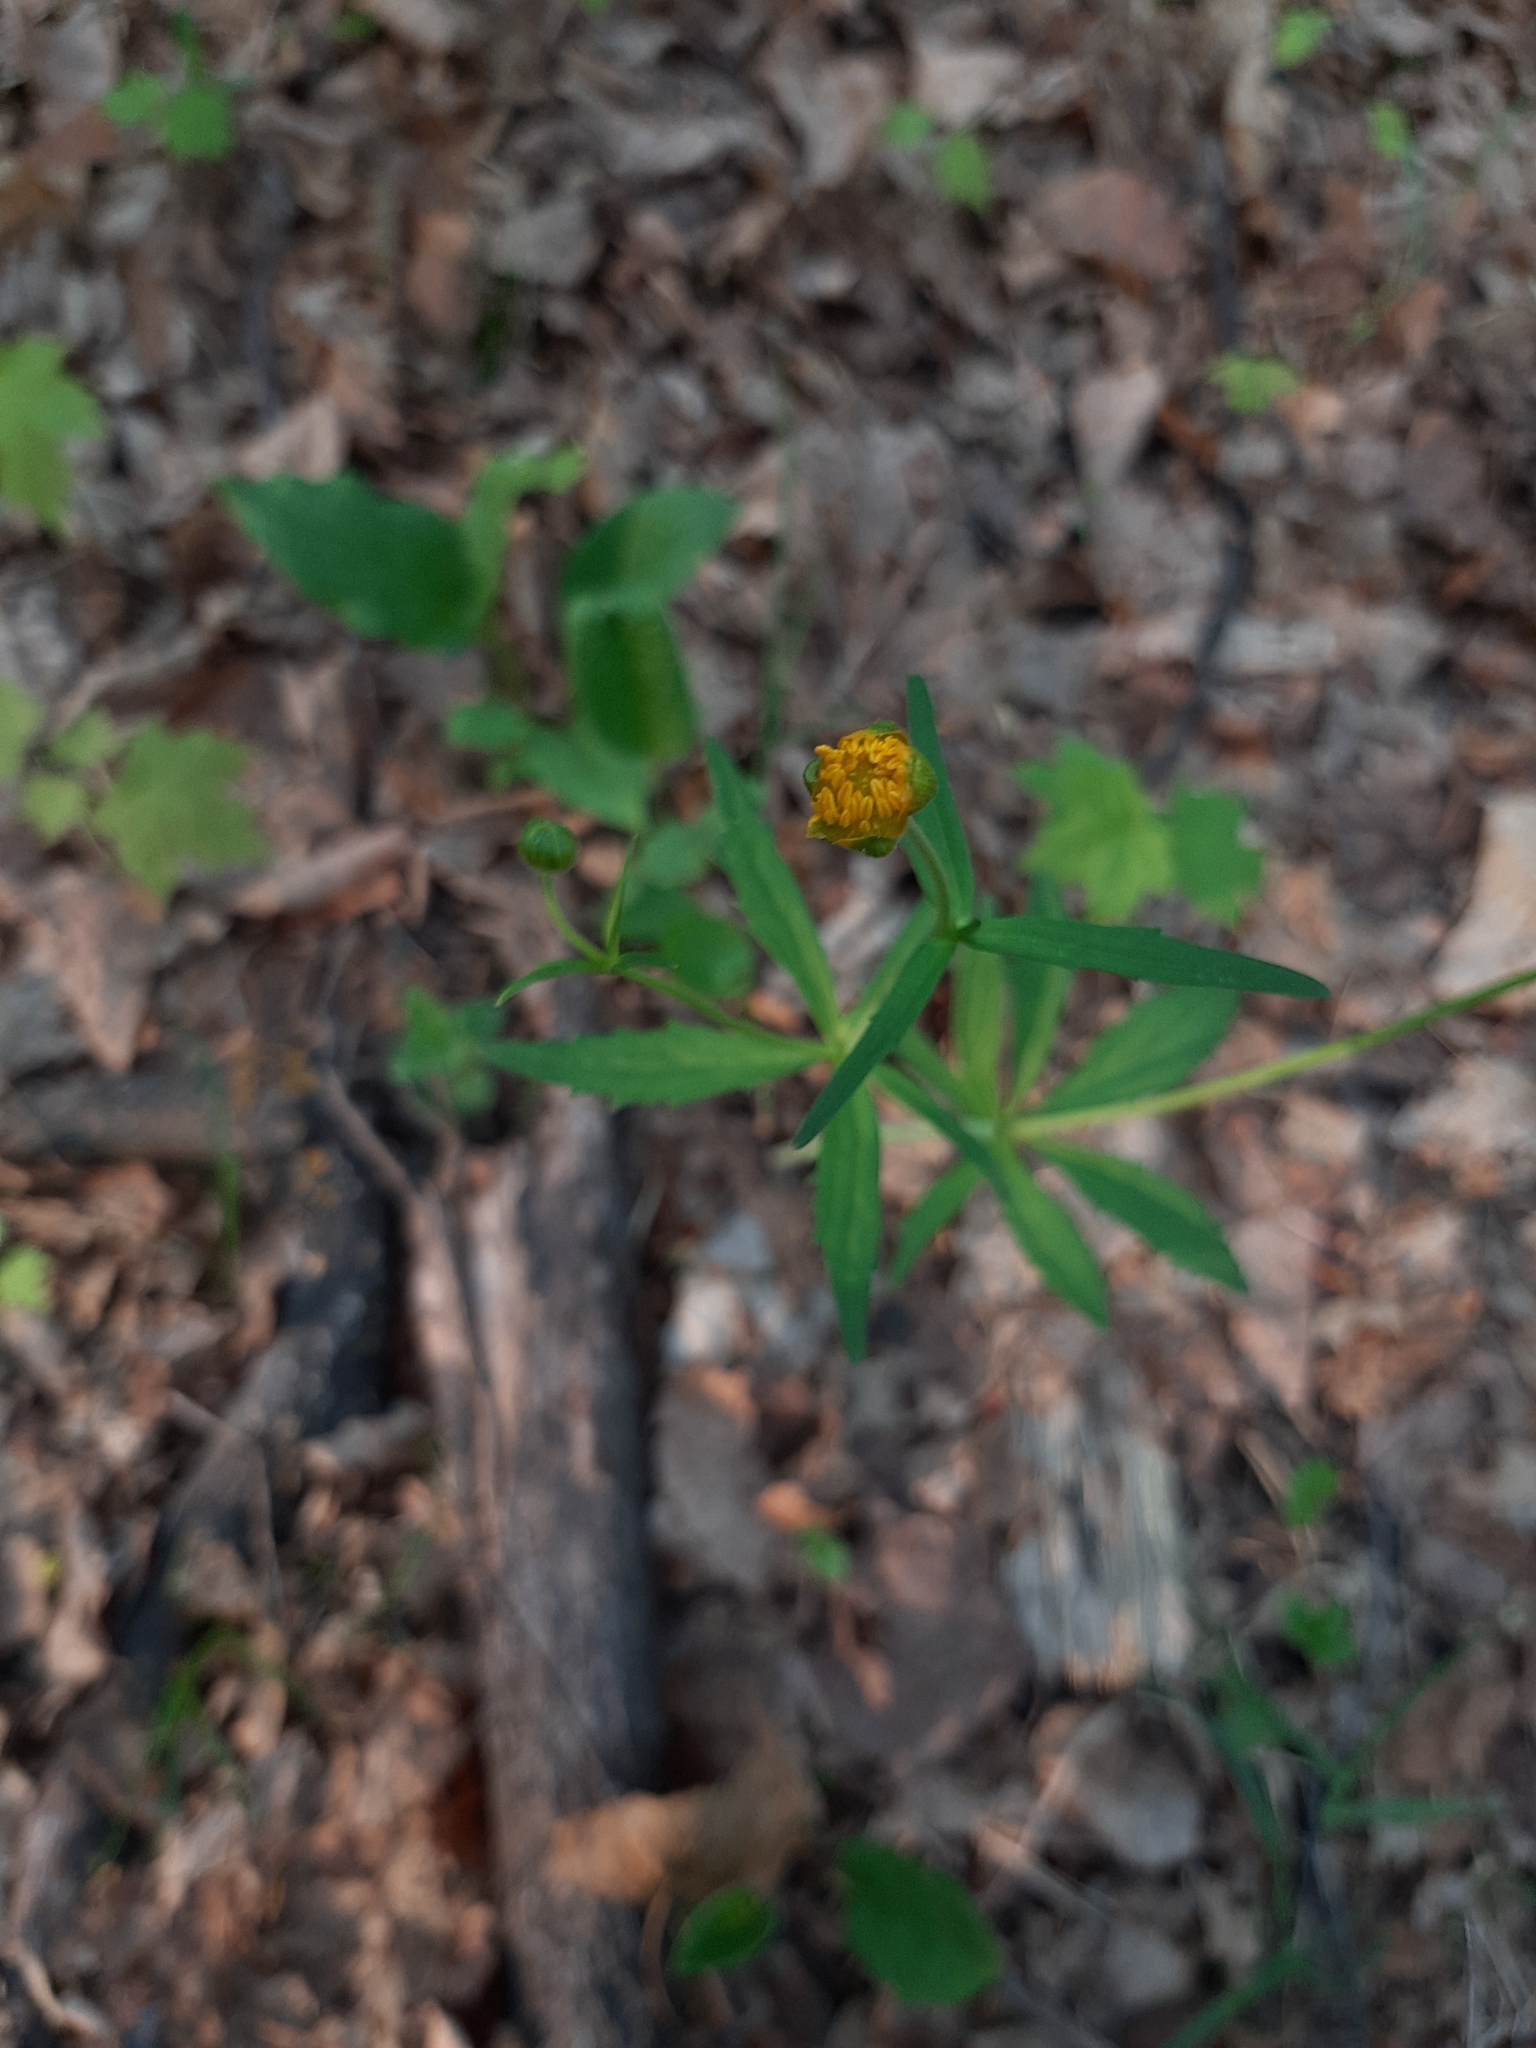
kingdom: Plantae
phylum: Tracheophyta
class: Magnoliopsida
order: Ranunculales
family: Ranunculaceae
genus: Ranunculus
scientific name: Ranunculus cassubicus
